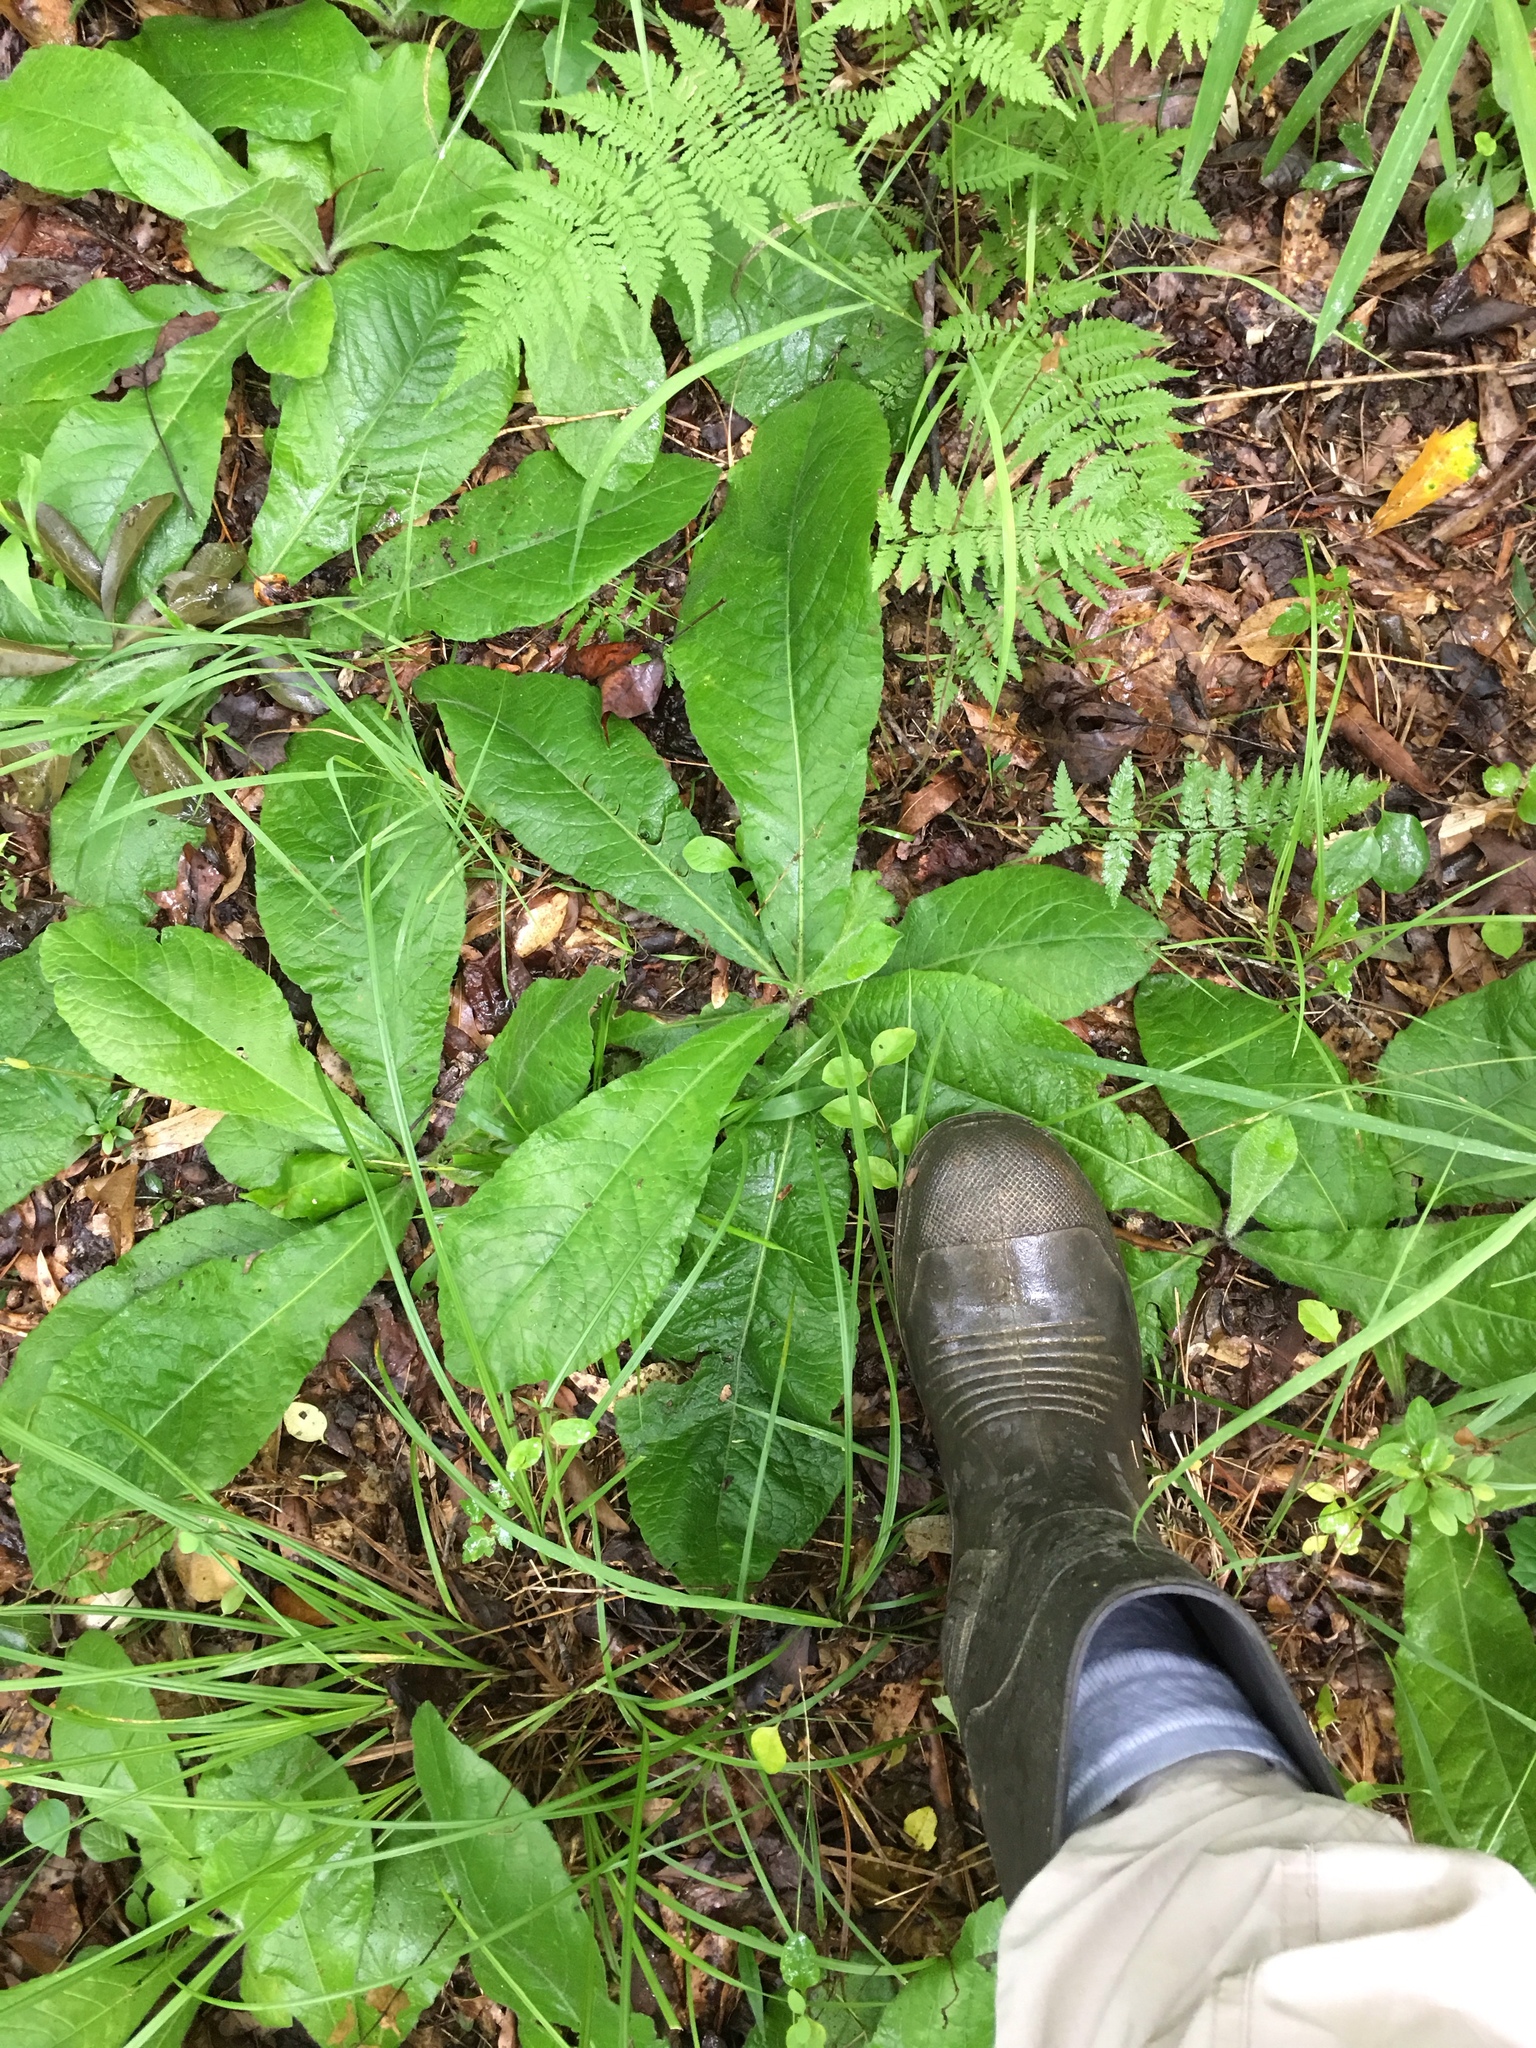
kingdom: Plantae
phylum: Tracheophyta
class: Magnoliopsida
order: Asterales
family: Asteraceae
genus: Elephantopus
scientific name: Elephantopus tomentosus
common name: Tobacco-weed
